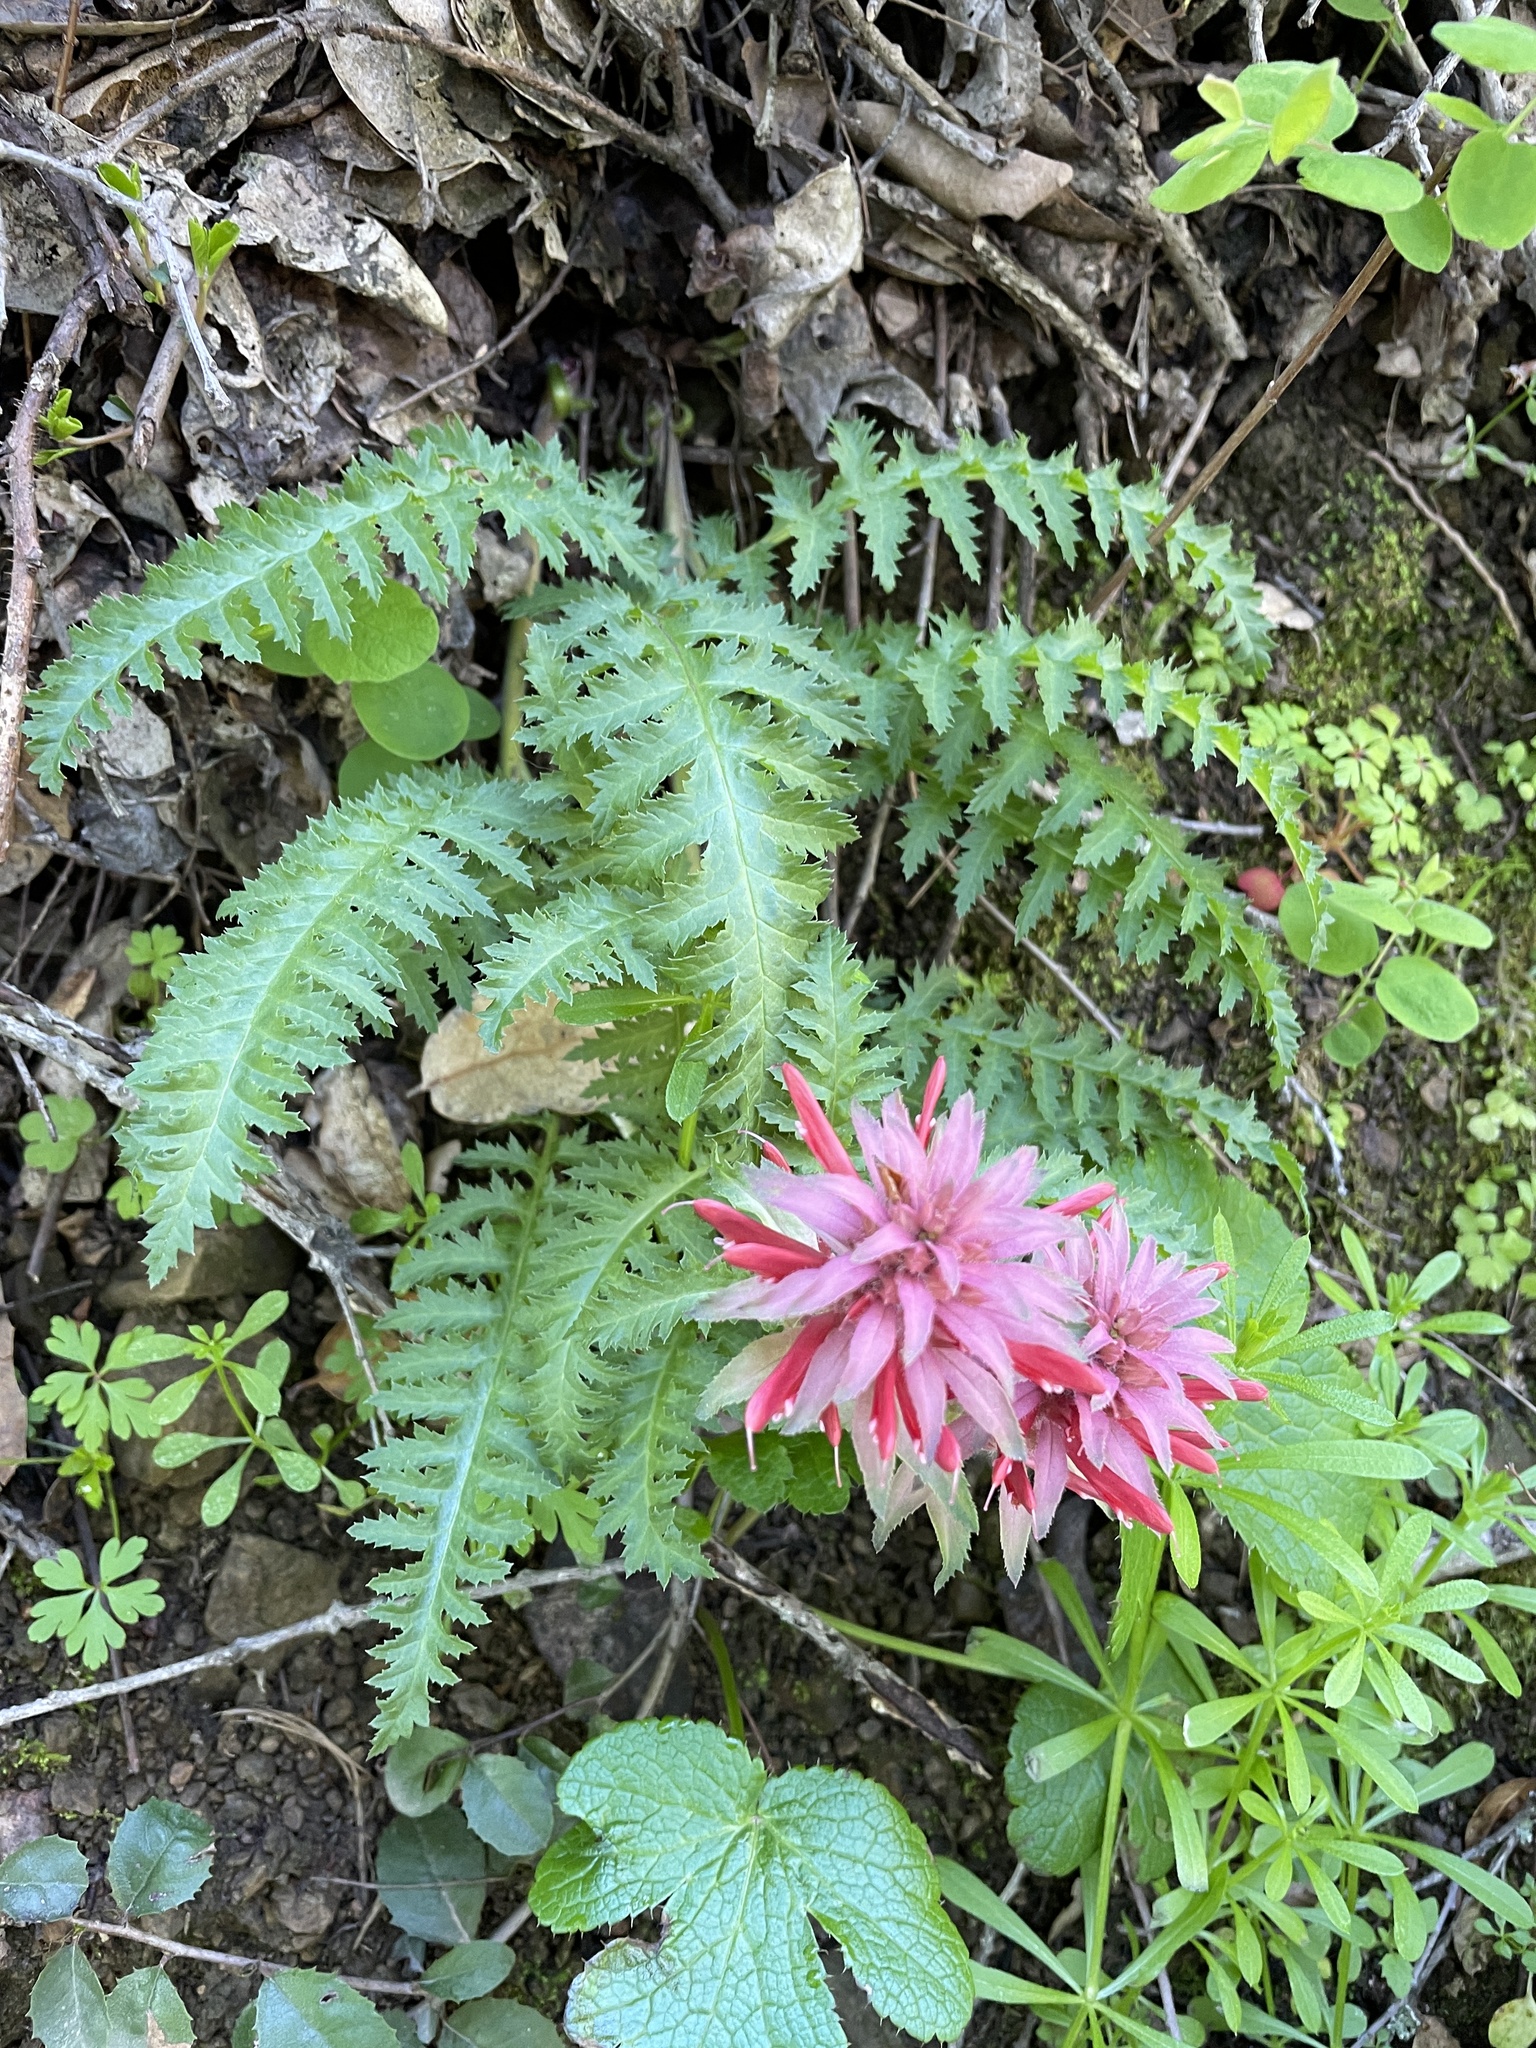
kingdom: Plantae
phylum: Tracheophyta
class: Magnoliopsida
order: Lamiales
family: Orobanchaceae
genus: Pedicularis
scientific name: Pedicularis densiflora
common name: Indian warrior
